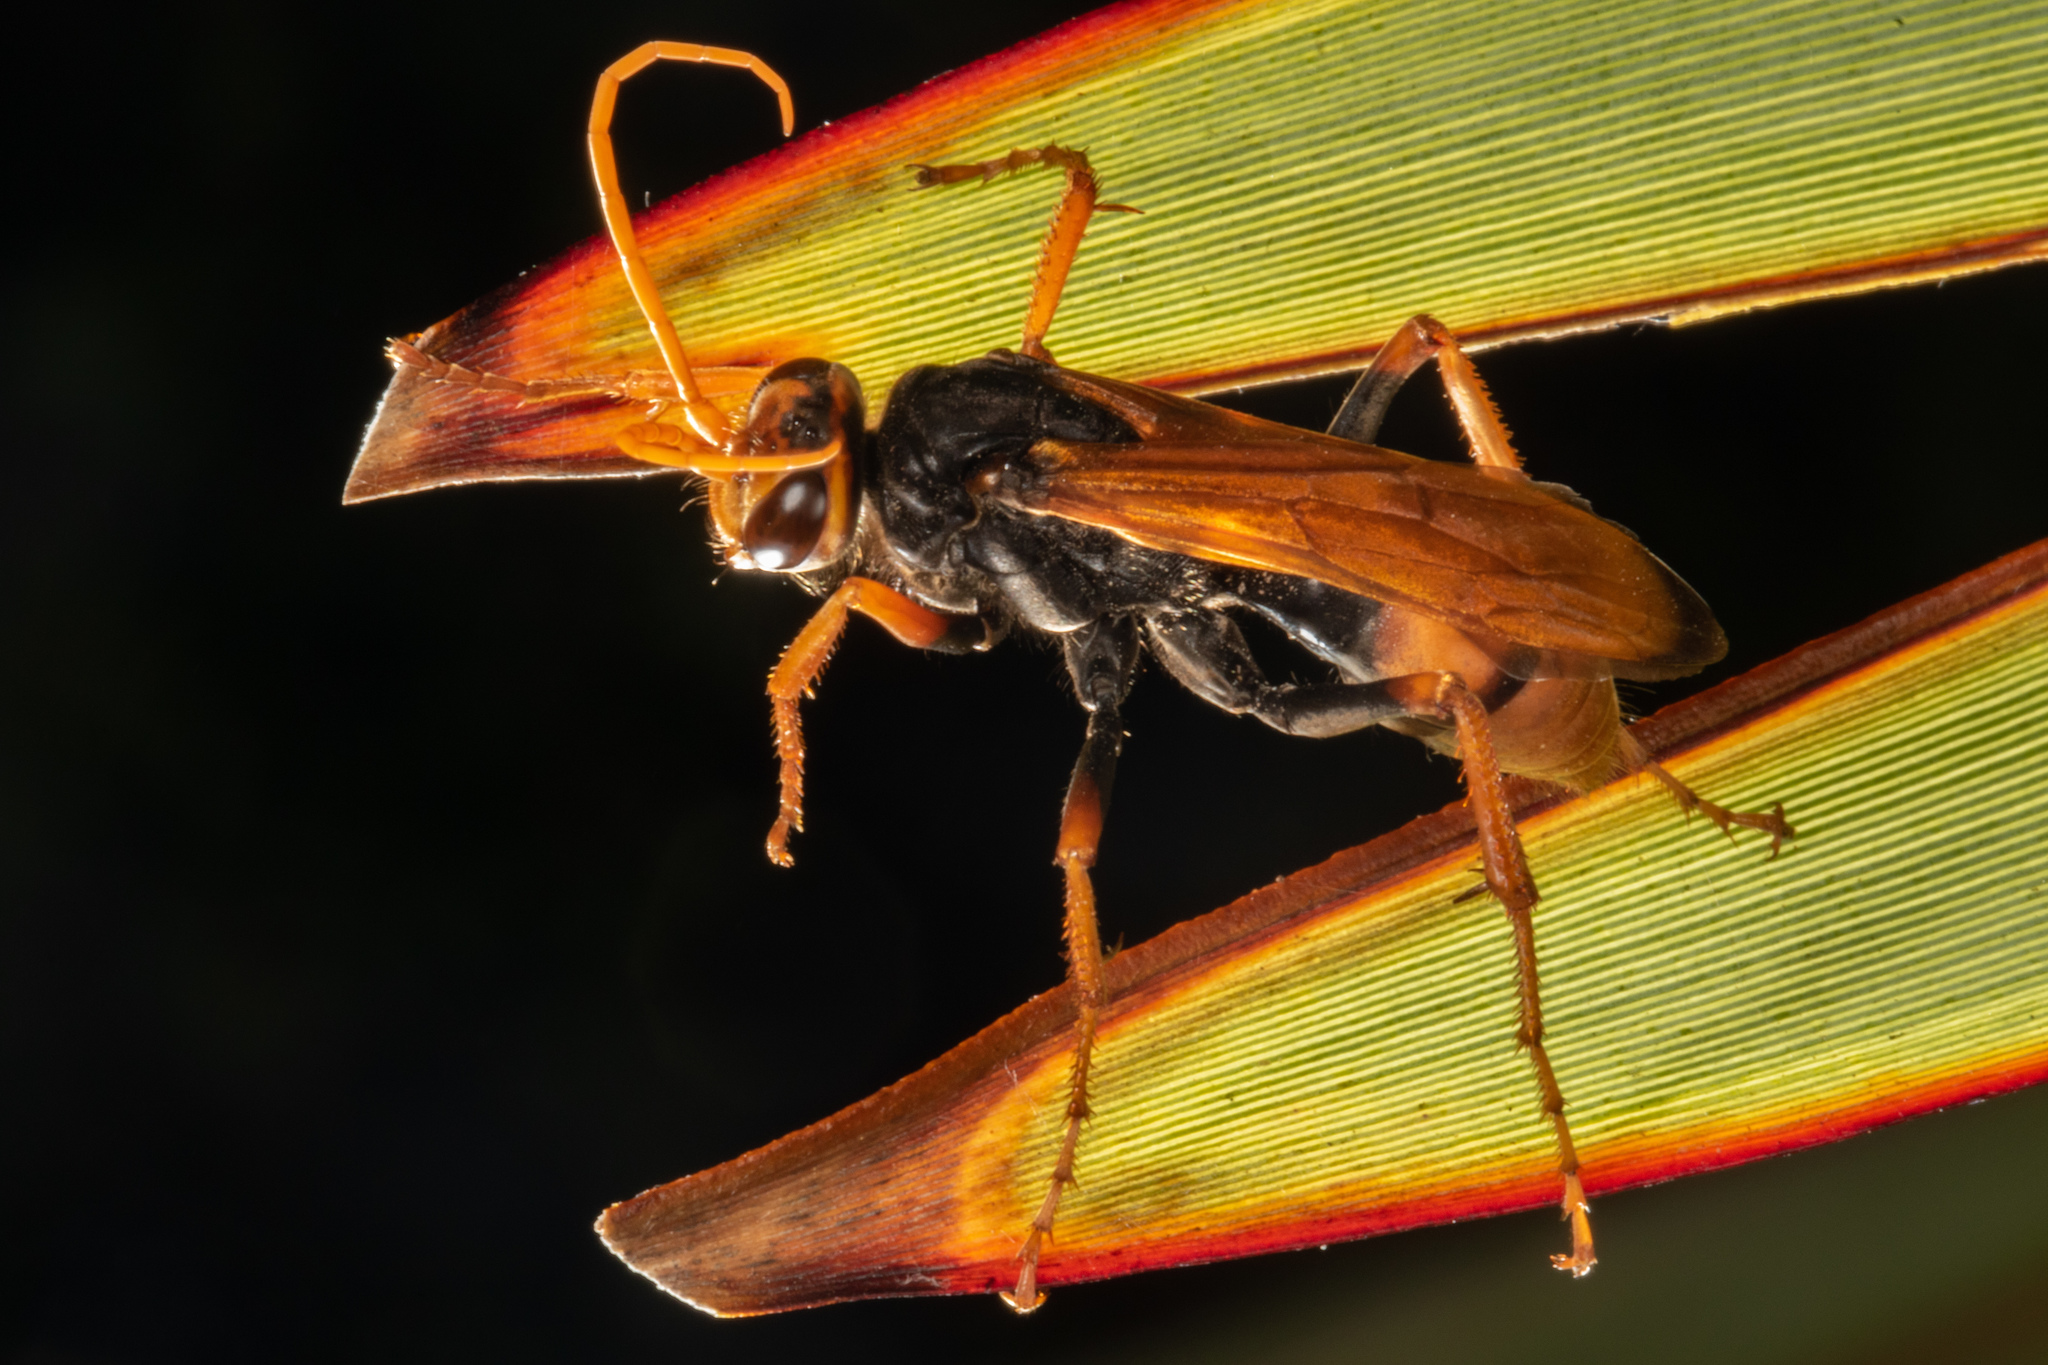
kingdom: Animalia
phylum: Arthropoda
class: Insecta
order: Hymenoptera
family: Pompilidae
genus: Cryptocheilus
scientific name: Cryptocheilus australis
